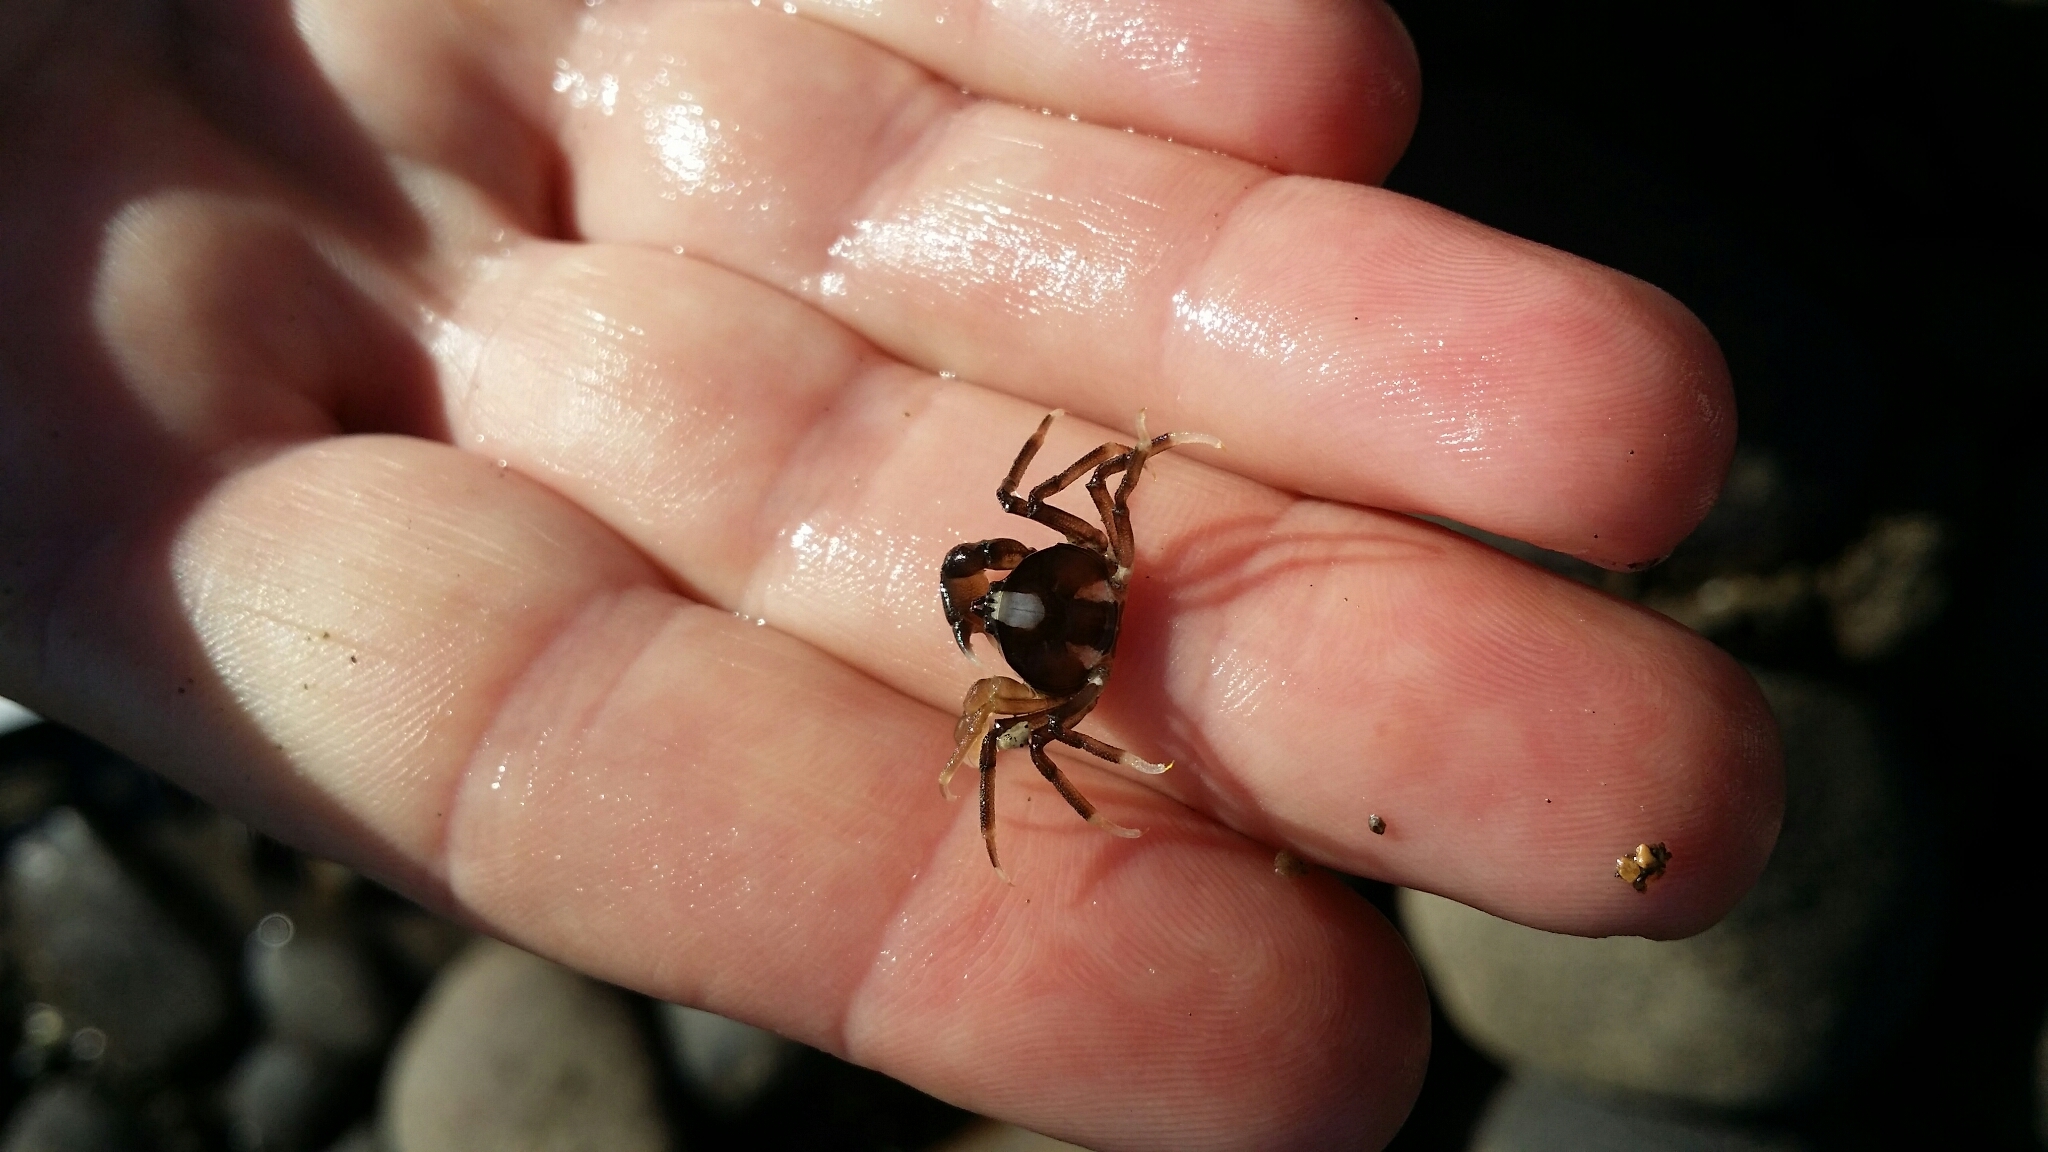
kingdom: Animalia
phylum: Arthropoda
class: Malacostraca
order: Decapoda
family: Hymenosomatidae
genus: Halicarcinus
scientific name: Halicarcinus quoyi
